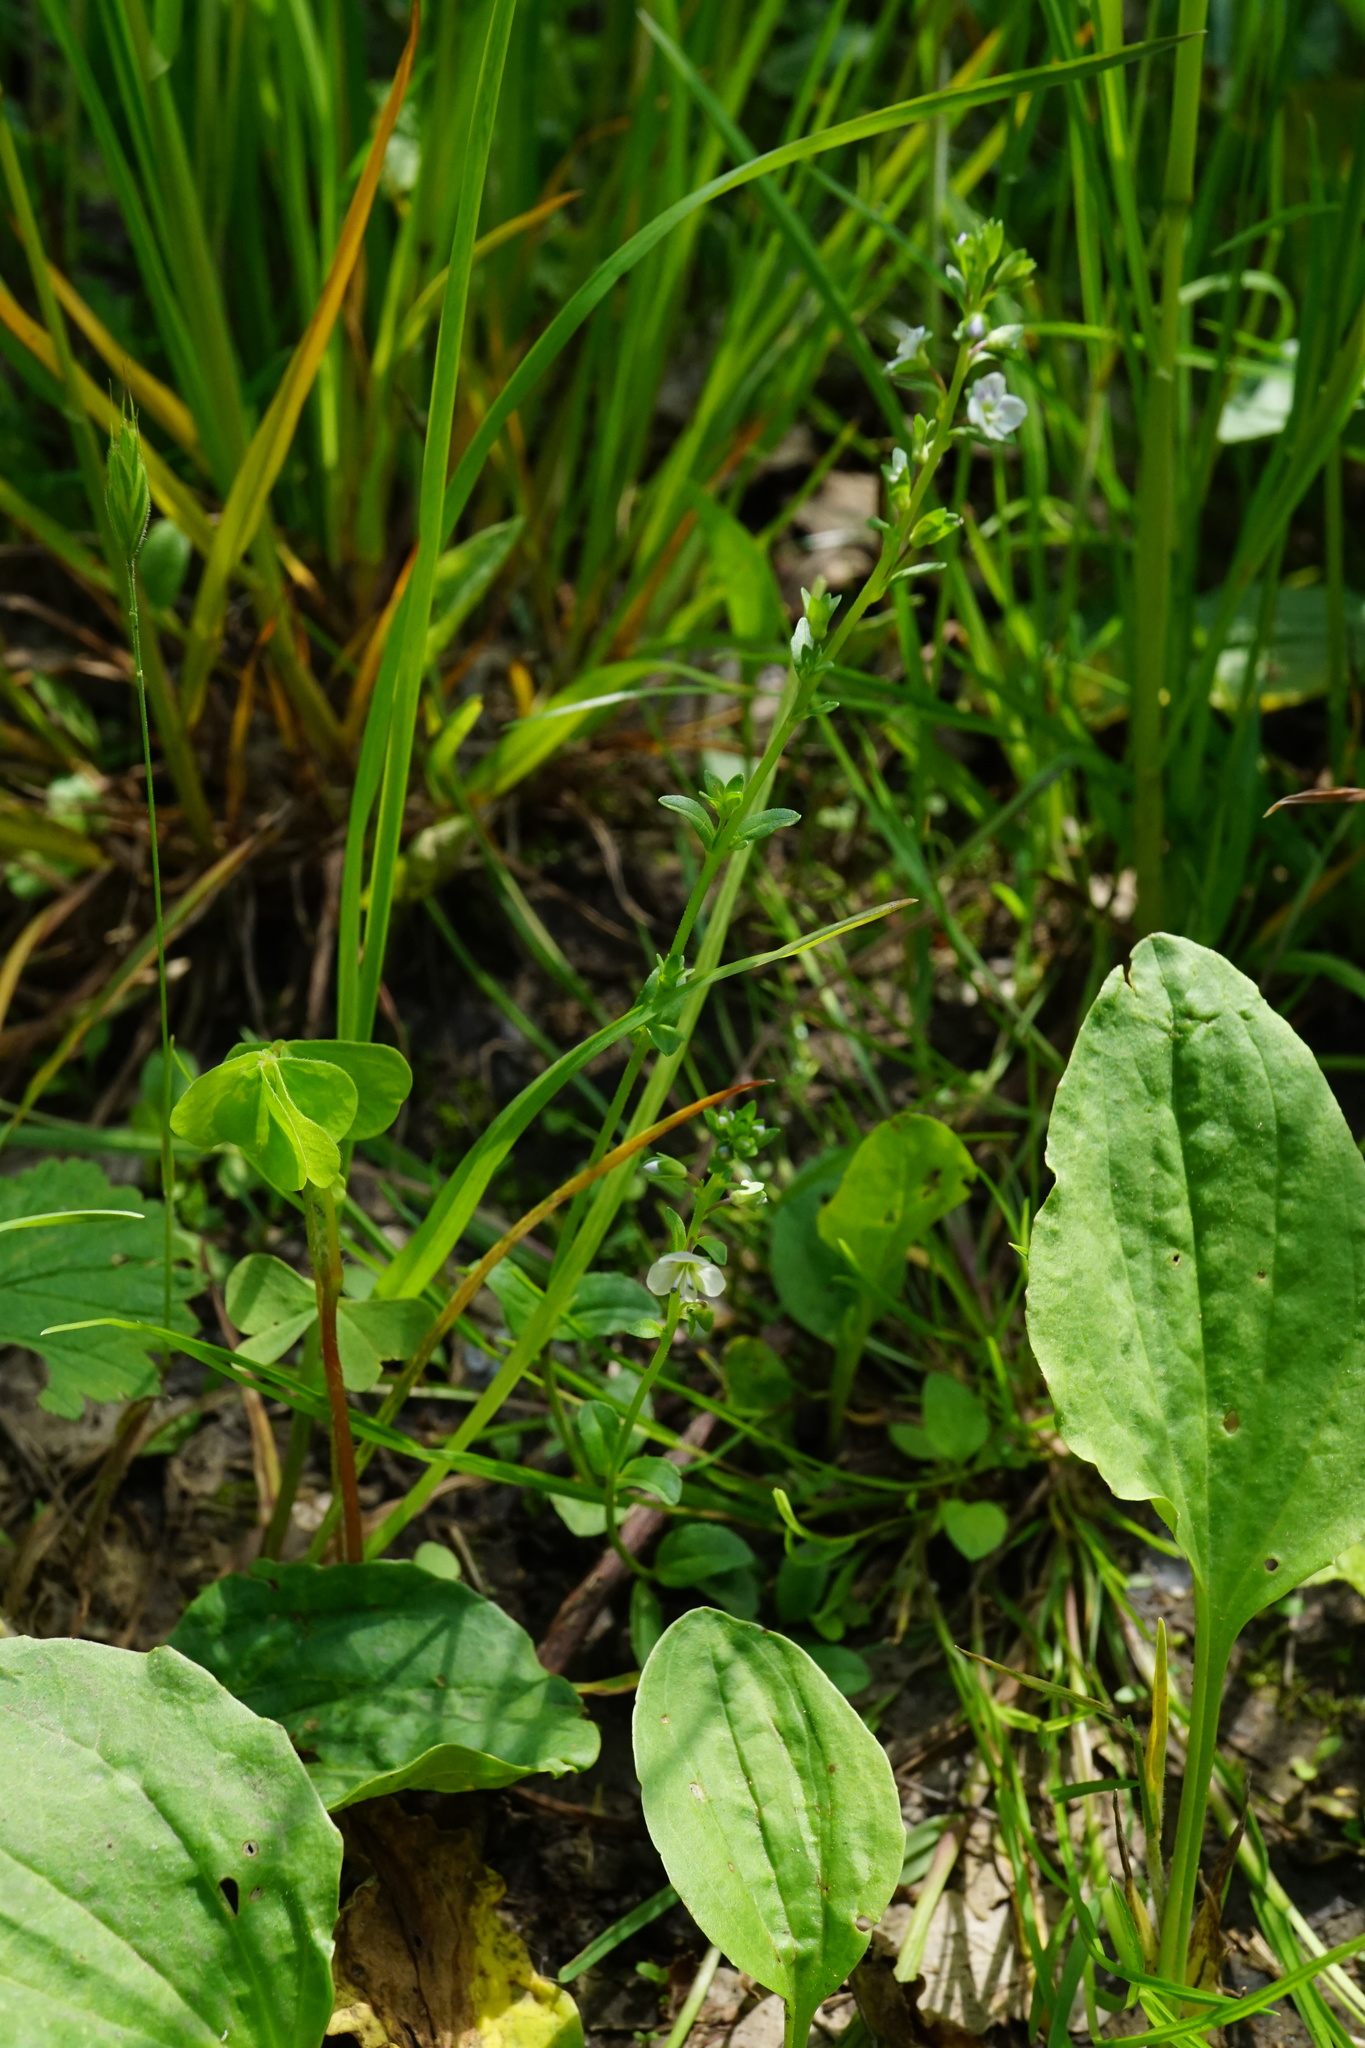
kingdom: Plantae
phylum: Tracheophyta
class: Magnoliopsida
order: Lamiales
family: Plantaginaceae
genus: Veronica
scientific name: Veronica serpyllifolia
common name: Thyme-leaved speedwell
